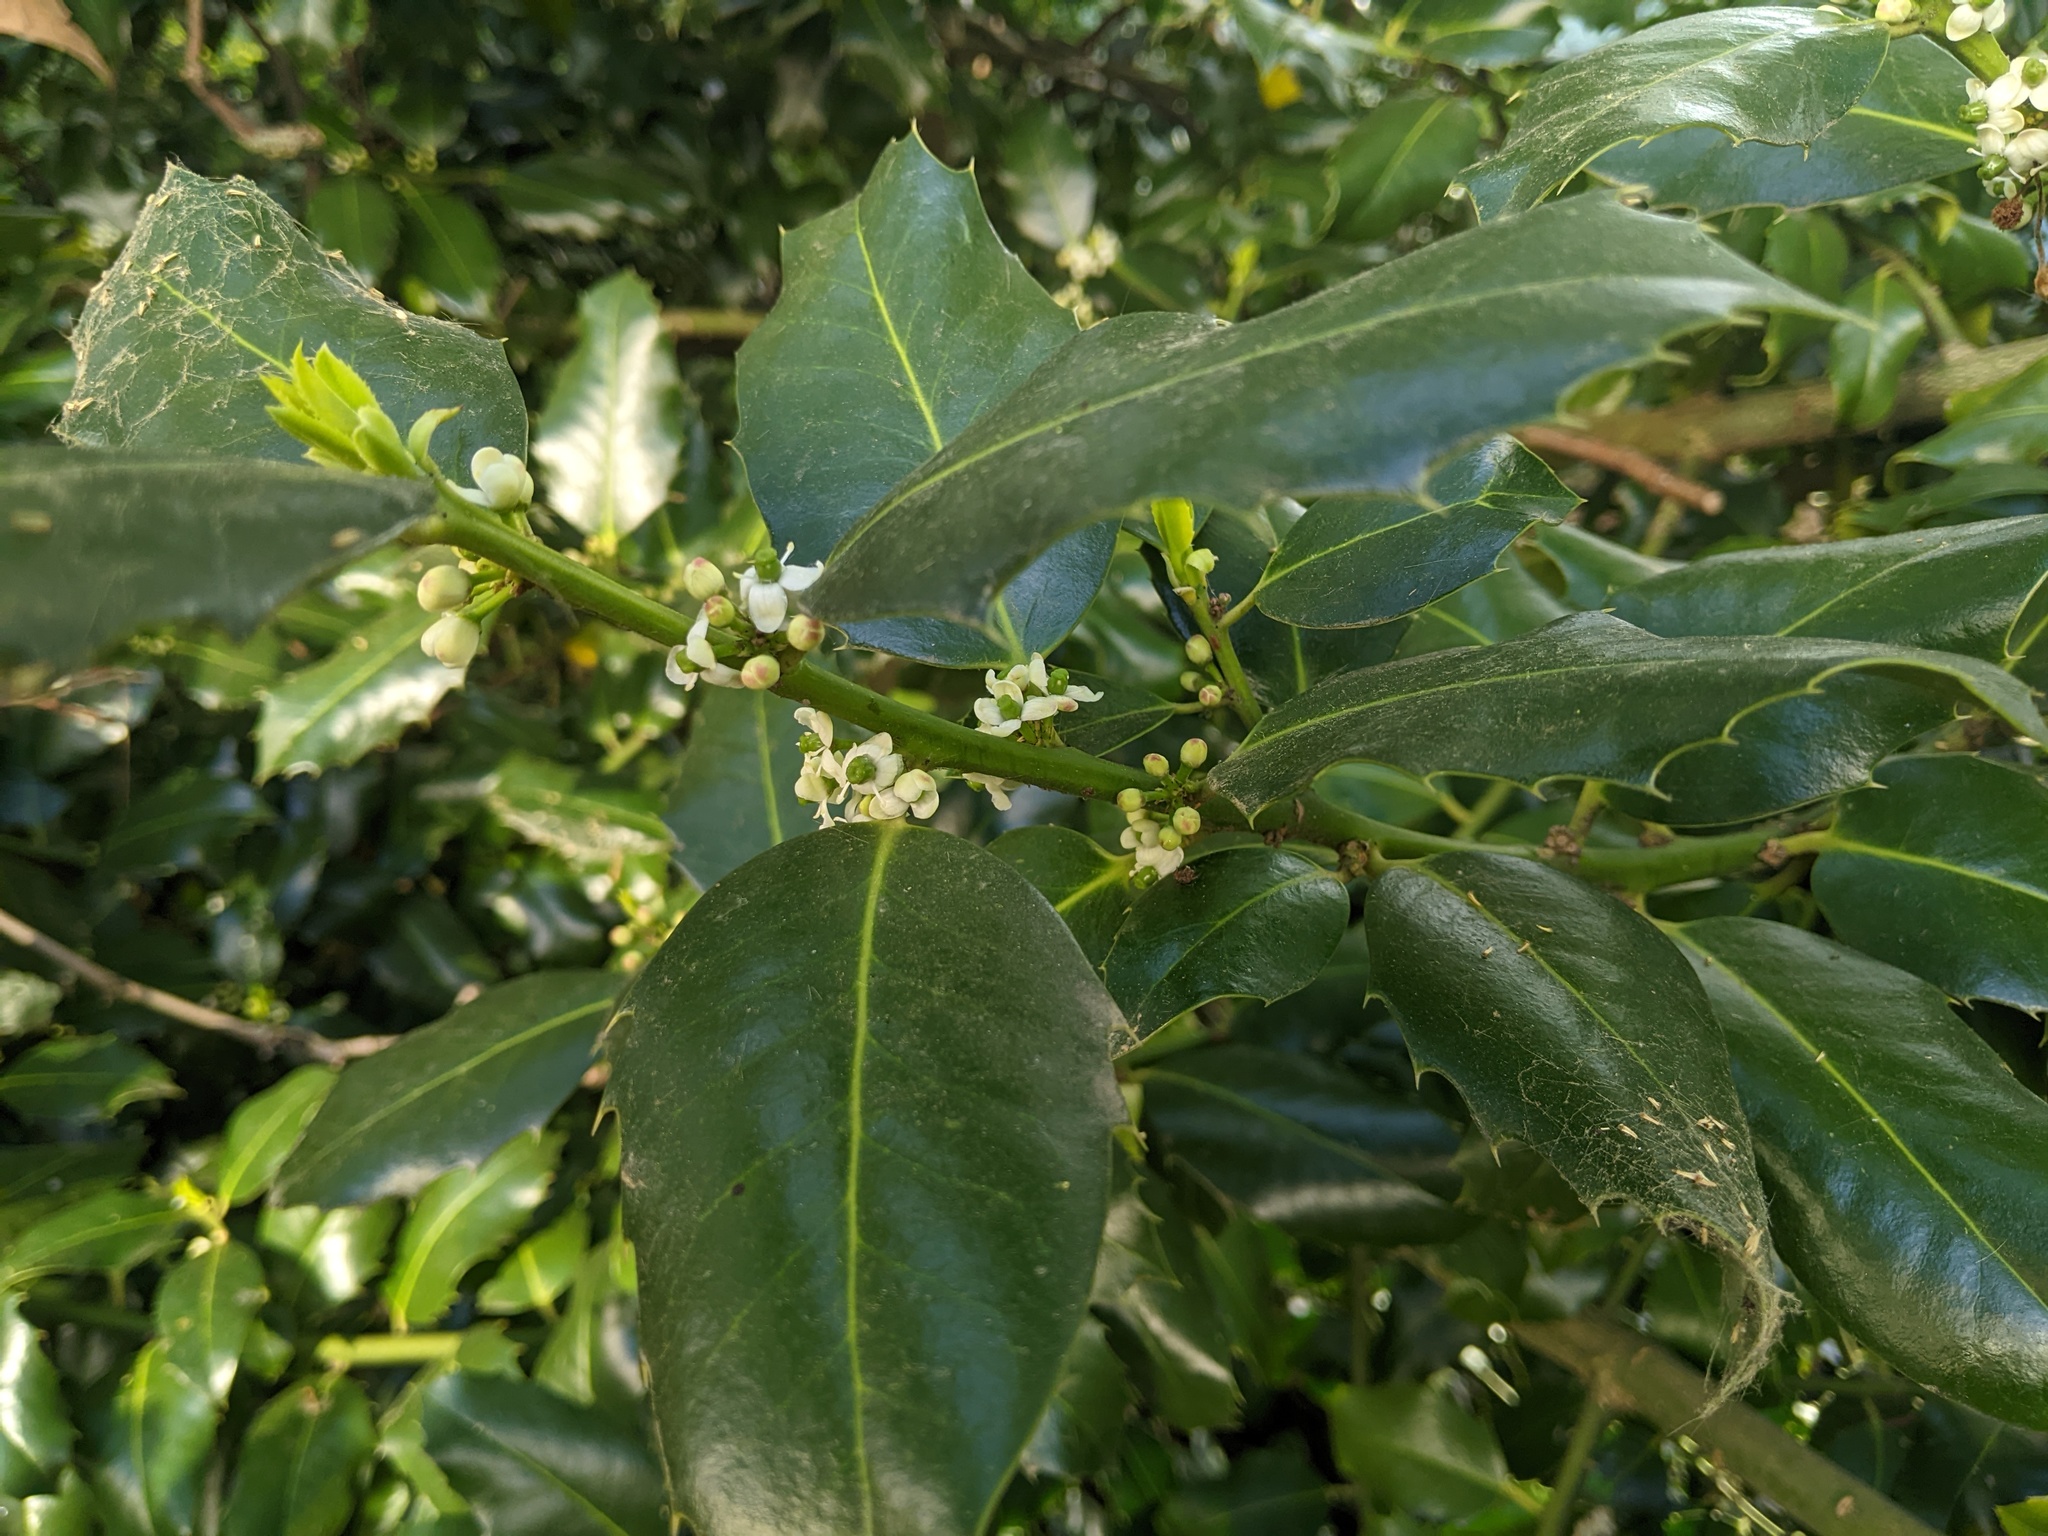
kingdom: Plantae
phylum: Tracheophyta
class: Magnoliopsida
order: Aquifoliales
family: Aquifoliaceae
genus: Ilex
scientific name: Ilex aquifolium
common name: English holly
